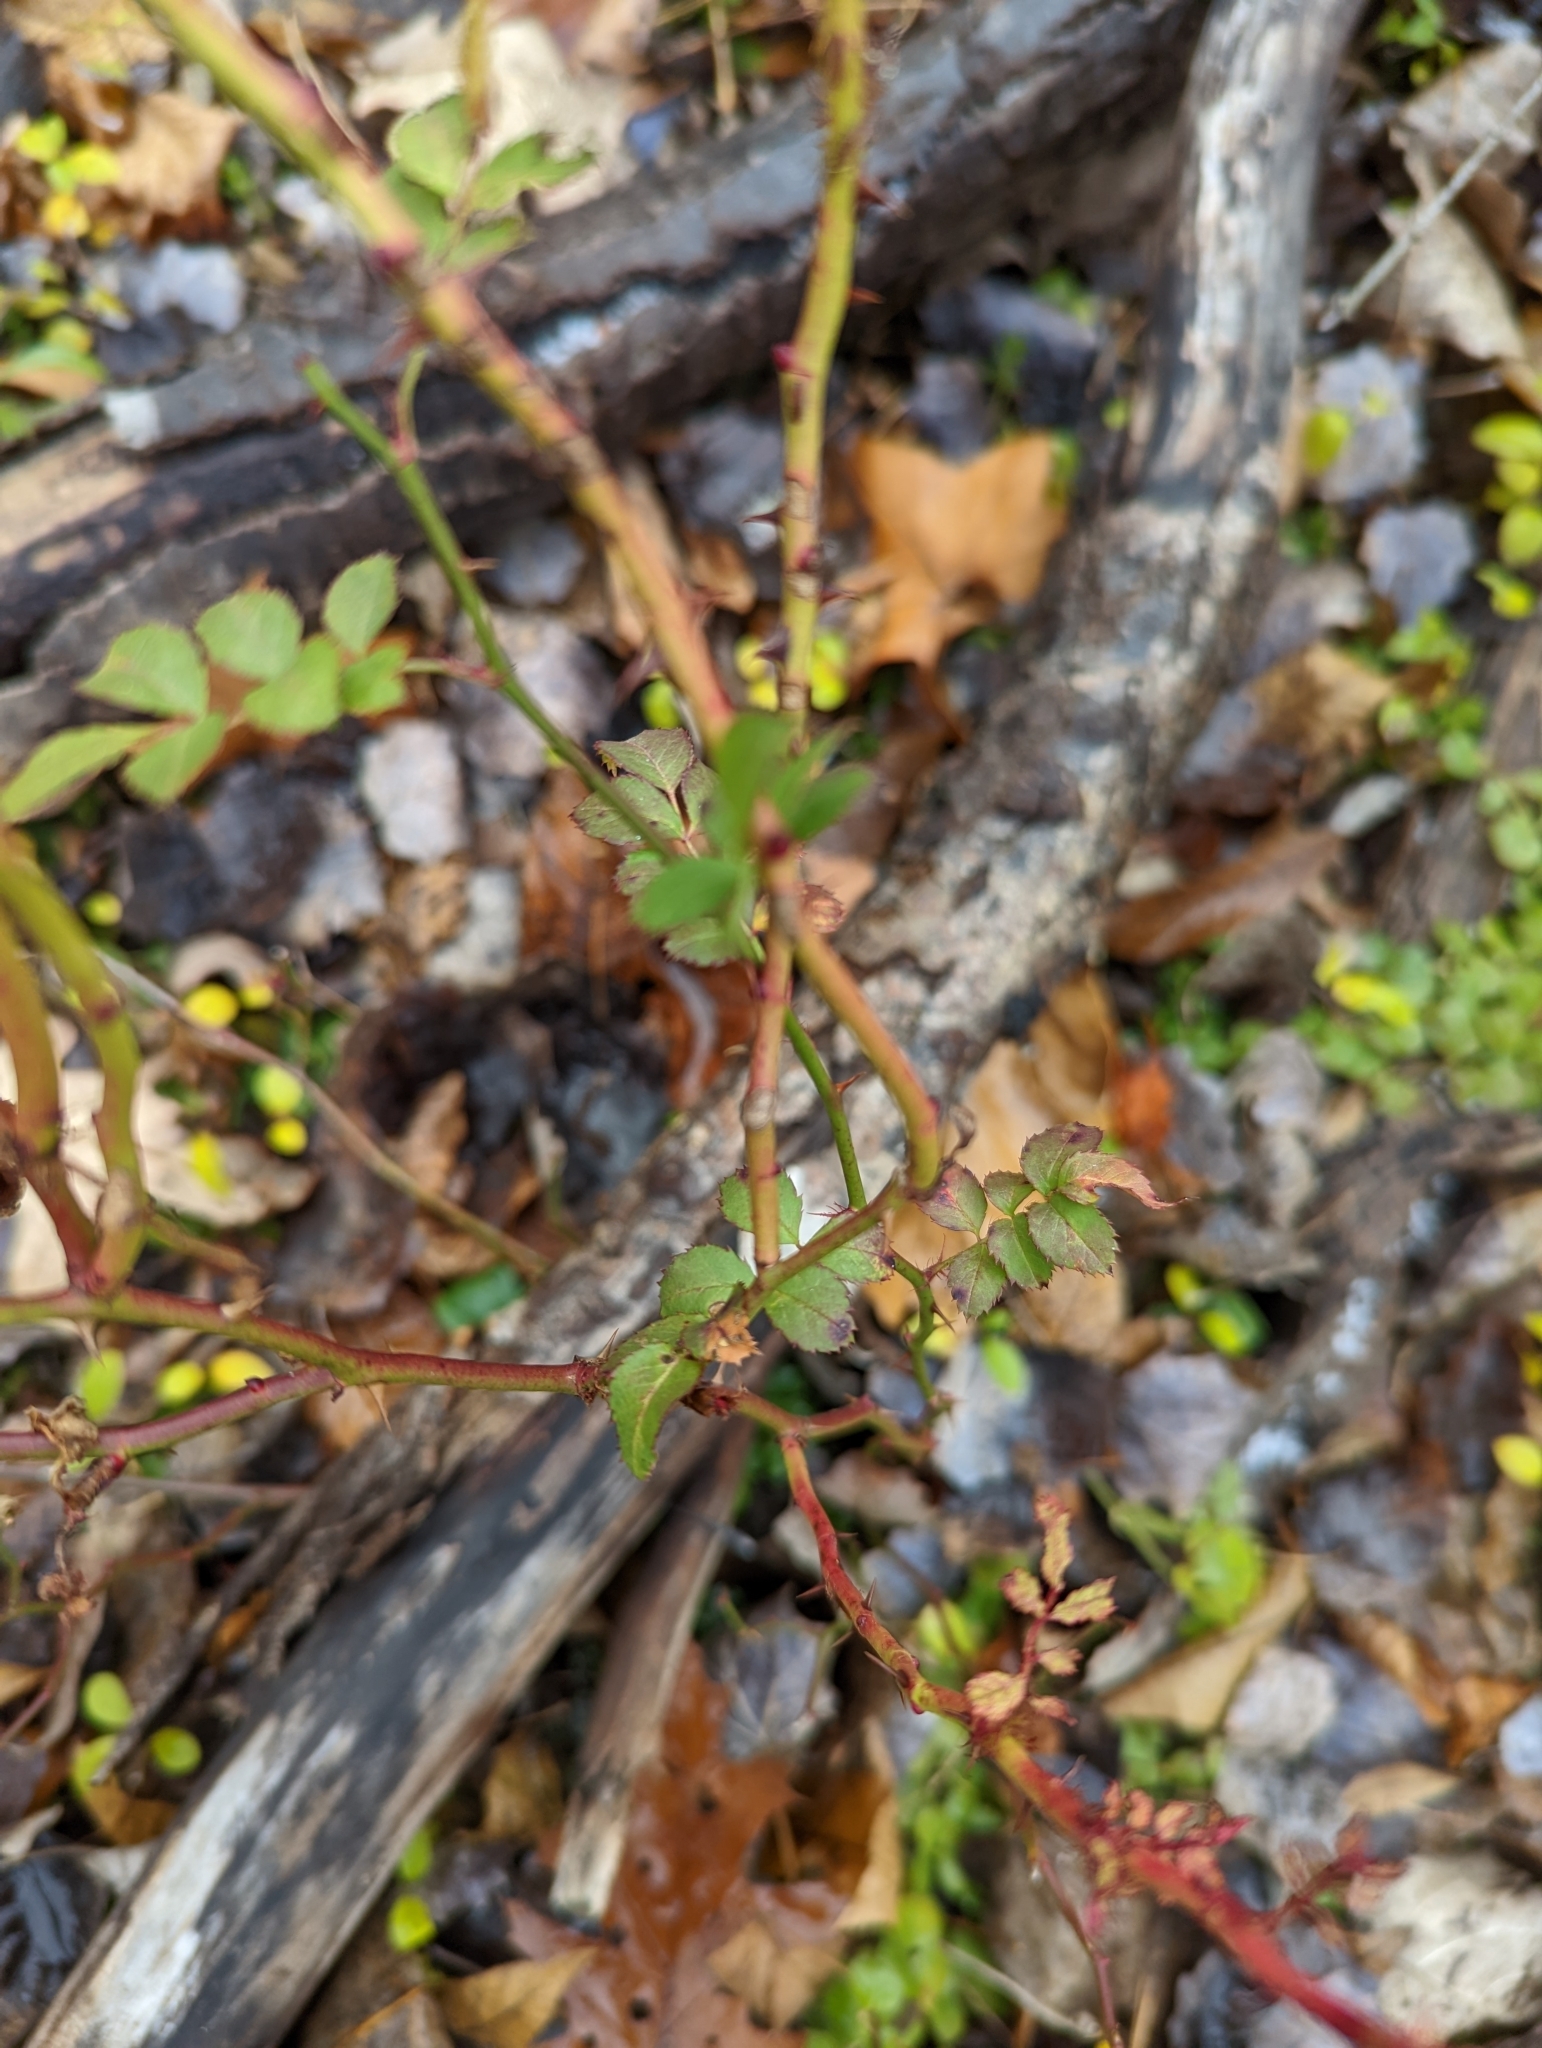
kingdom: Plantae
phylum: Tracheophyta
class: Magnoliopsida
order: Rosales
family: Rosaceae
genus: Rosa
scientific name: Rosa multiflora
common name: Multiflora rose
